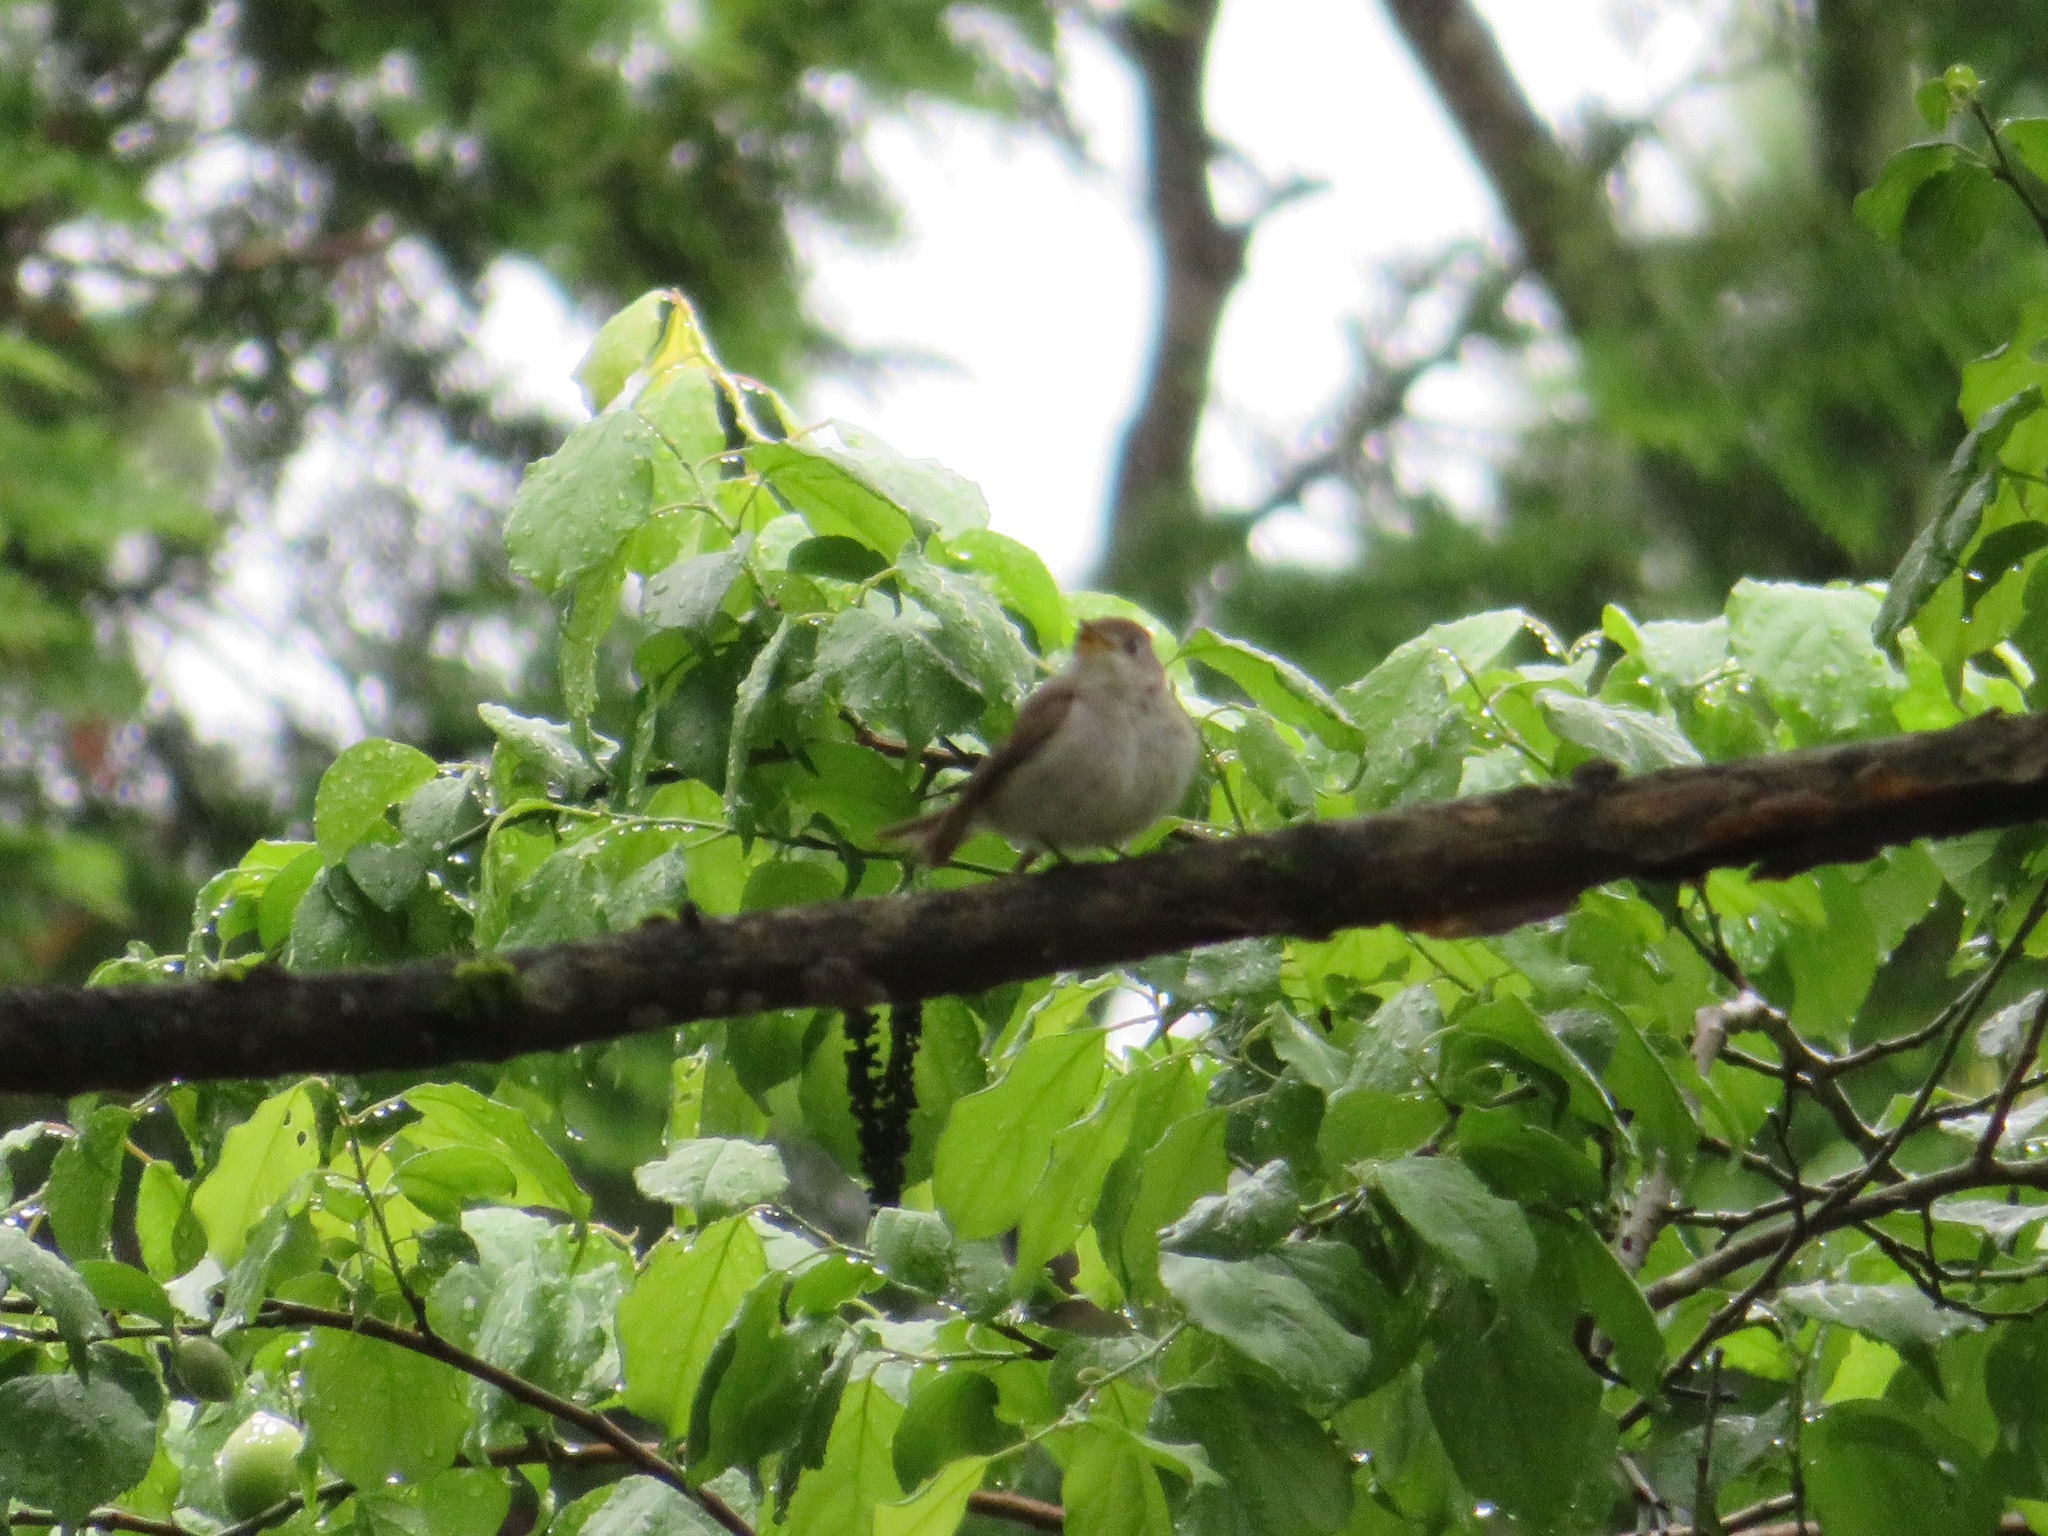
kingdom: Animalia
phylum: Chordata
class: Aves
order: Passeriformes
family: Muscicapidae
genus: Muscicapa
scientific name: Muscicapa latirostris
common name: Asian brown flycatcher
